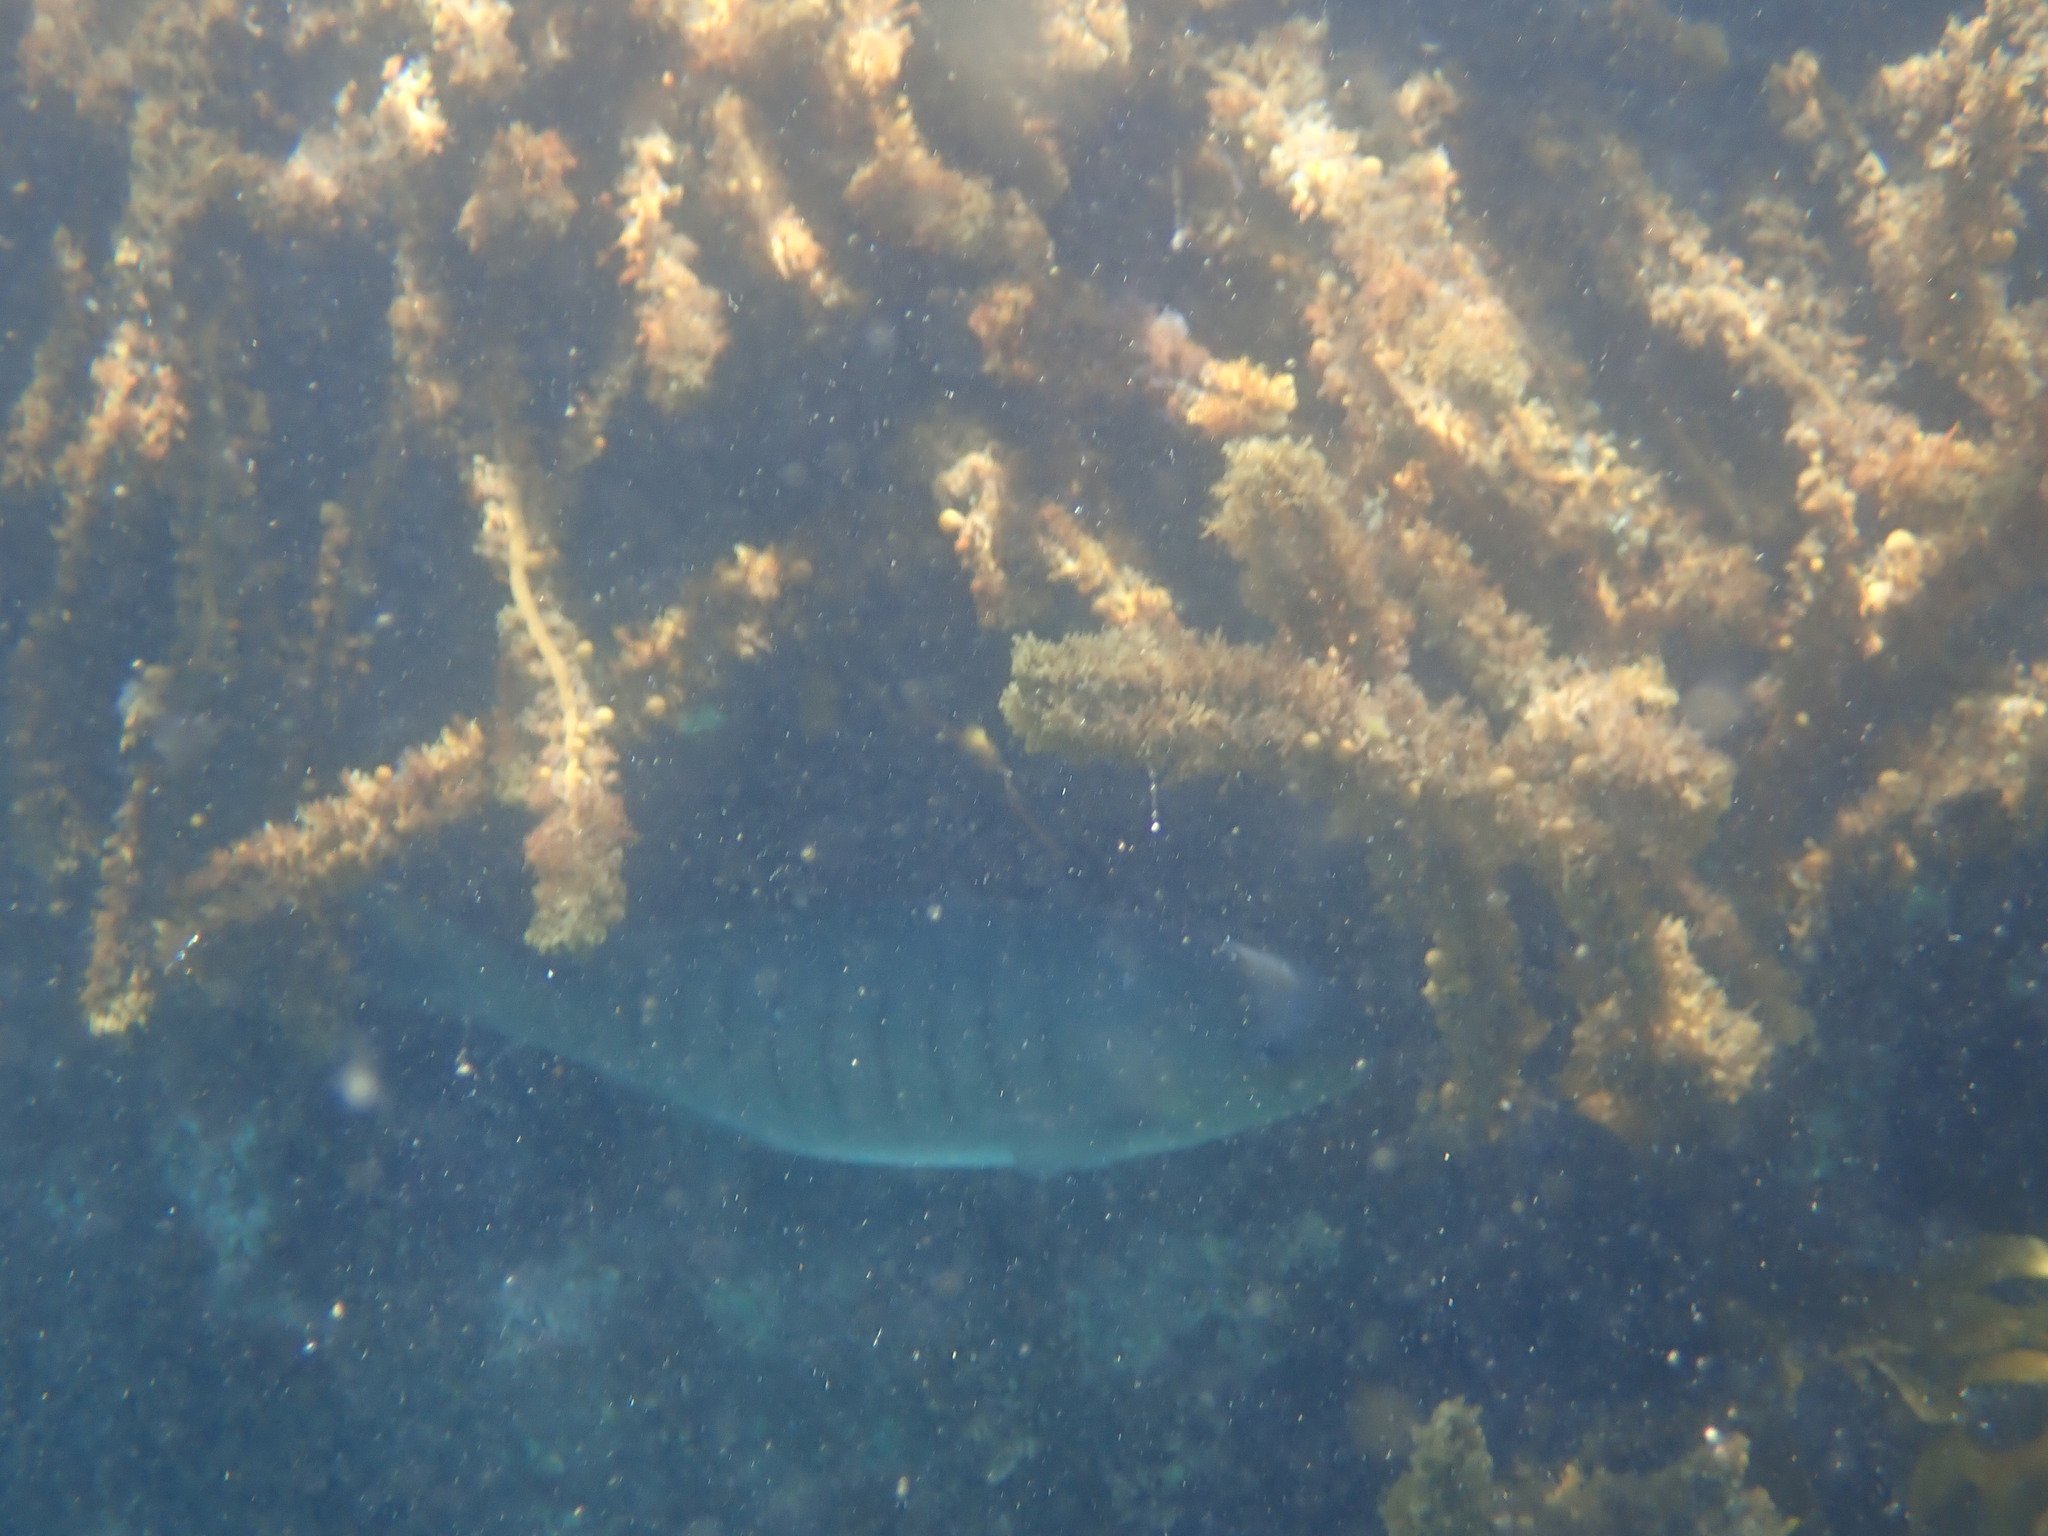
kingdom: Animalia
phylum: Chordata
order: Perciformes
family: Kyphosidae
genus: Girella
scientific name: Girella tricuspidata
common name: Parore
